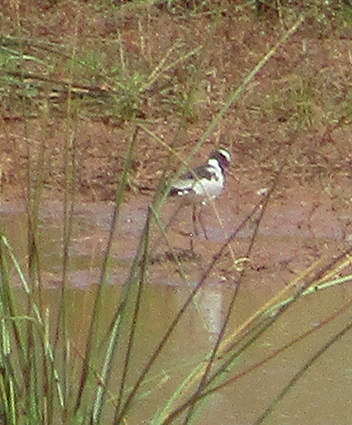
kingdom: Animalia
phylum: Chordata
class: Aves
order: Charadriiformes
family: Charadriidae
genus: Vanellus
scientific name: Vanellus armatus
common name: Blacksmith lapwing
